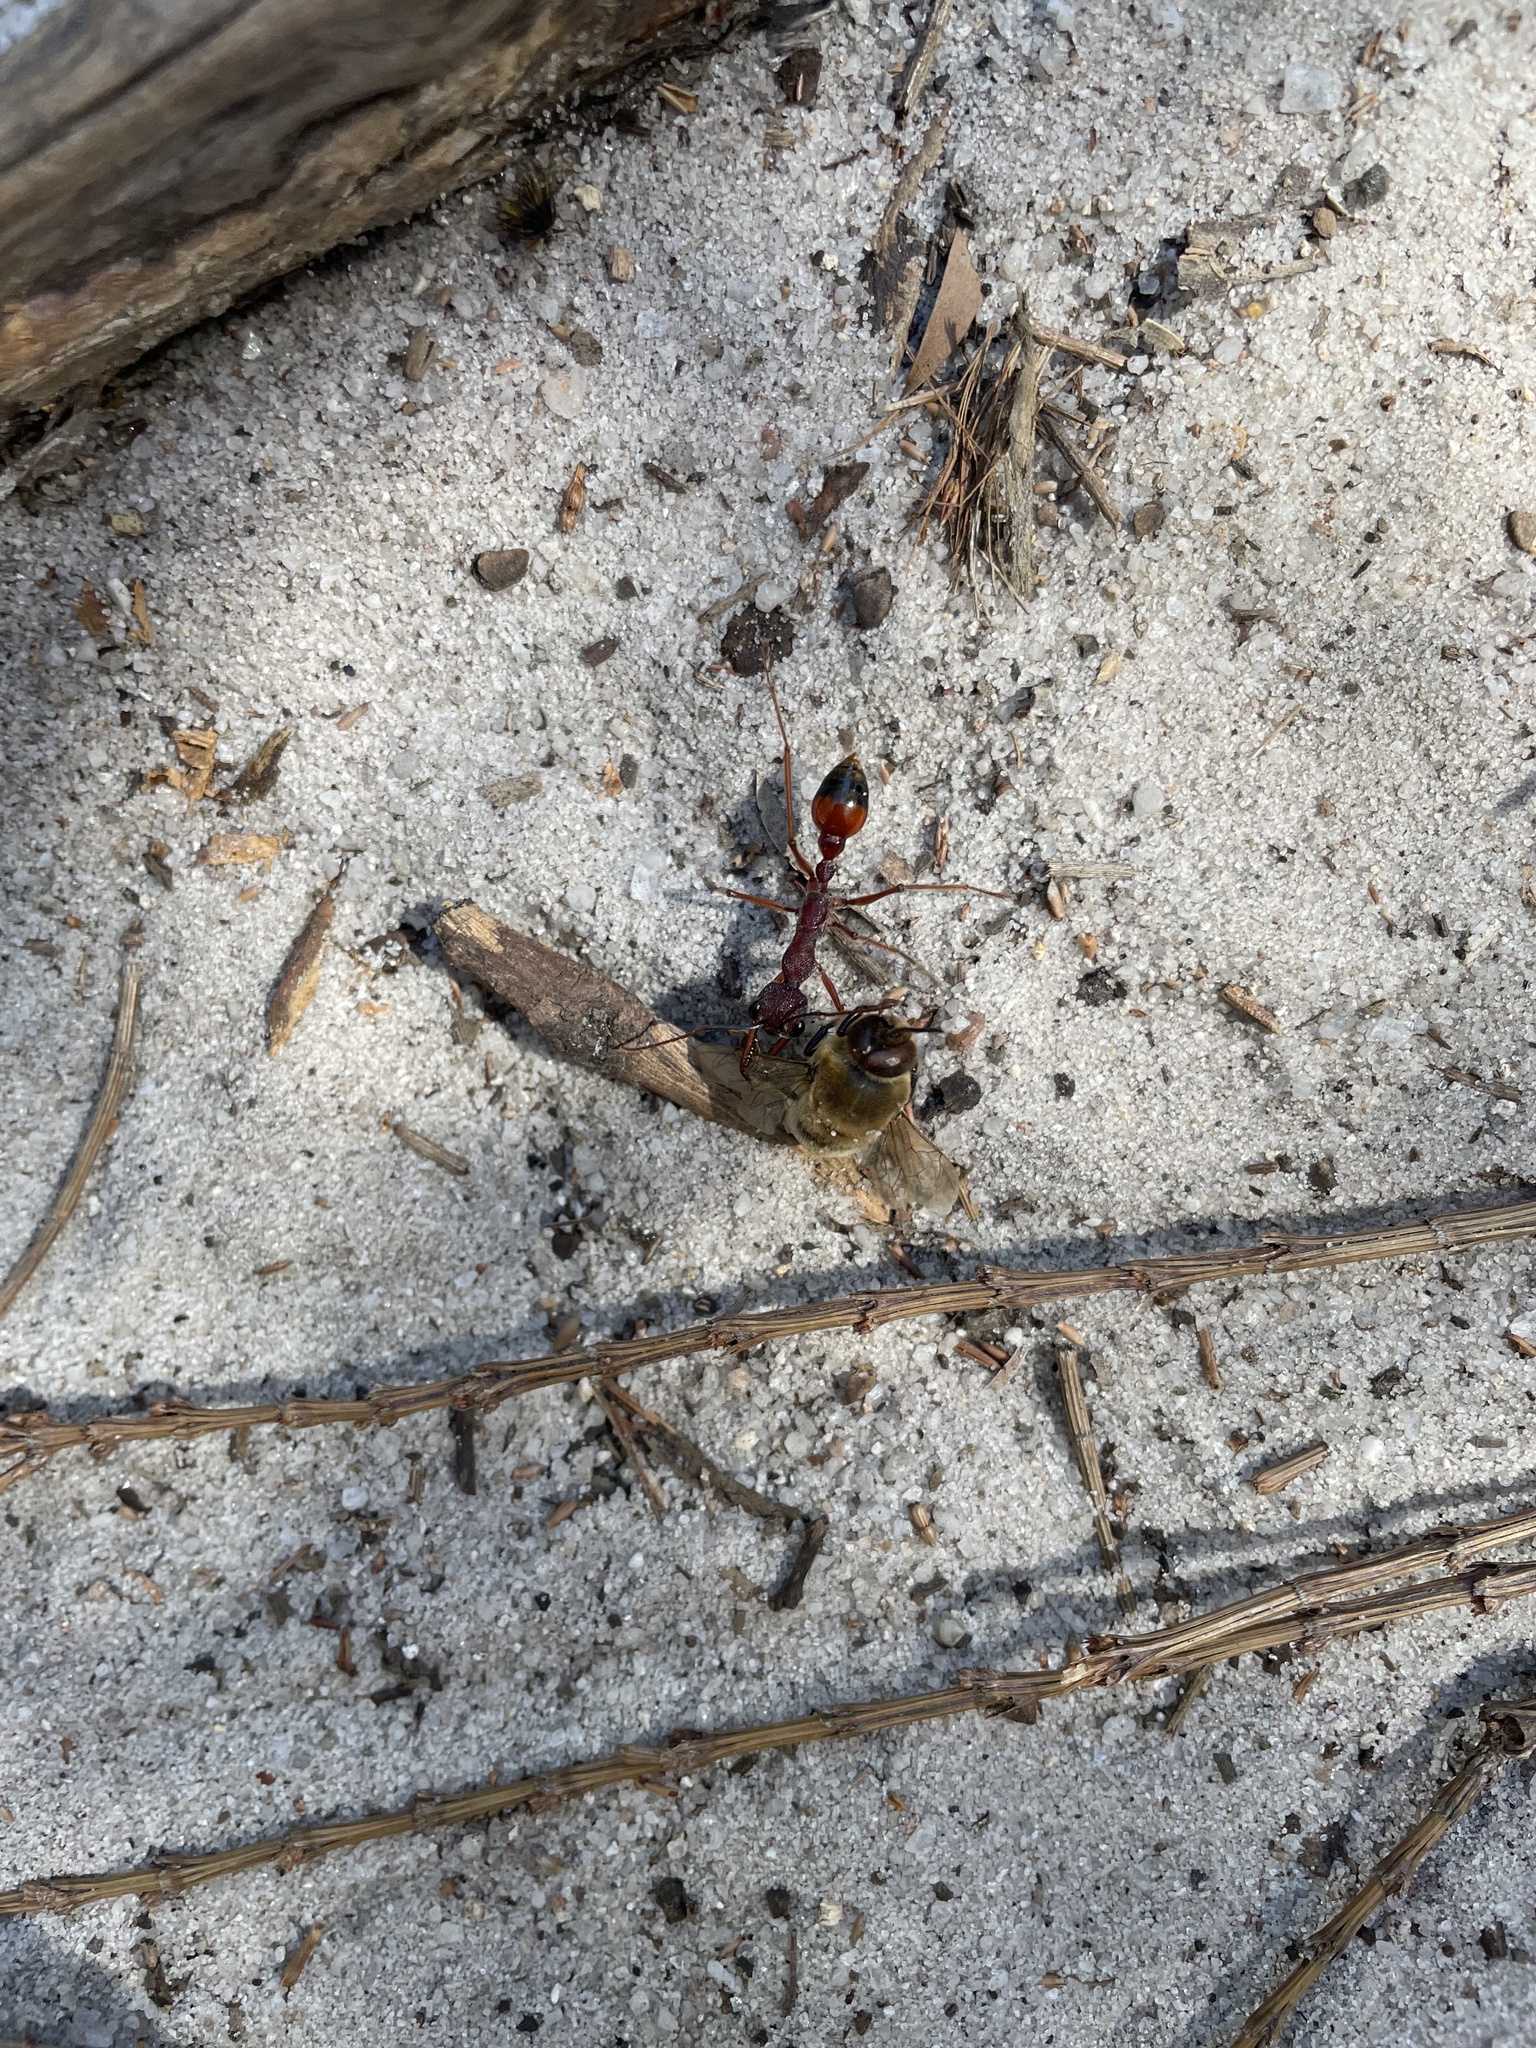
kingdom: Animalia
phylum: Arthropoda
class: Insecta
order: Hymenoptera
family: Formicidae
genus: Myrmecia
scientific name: Myrmecia nigriscapa
